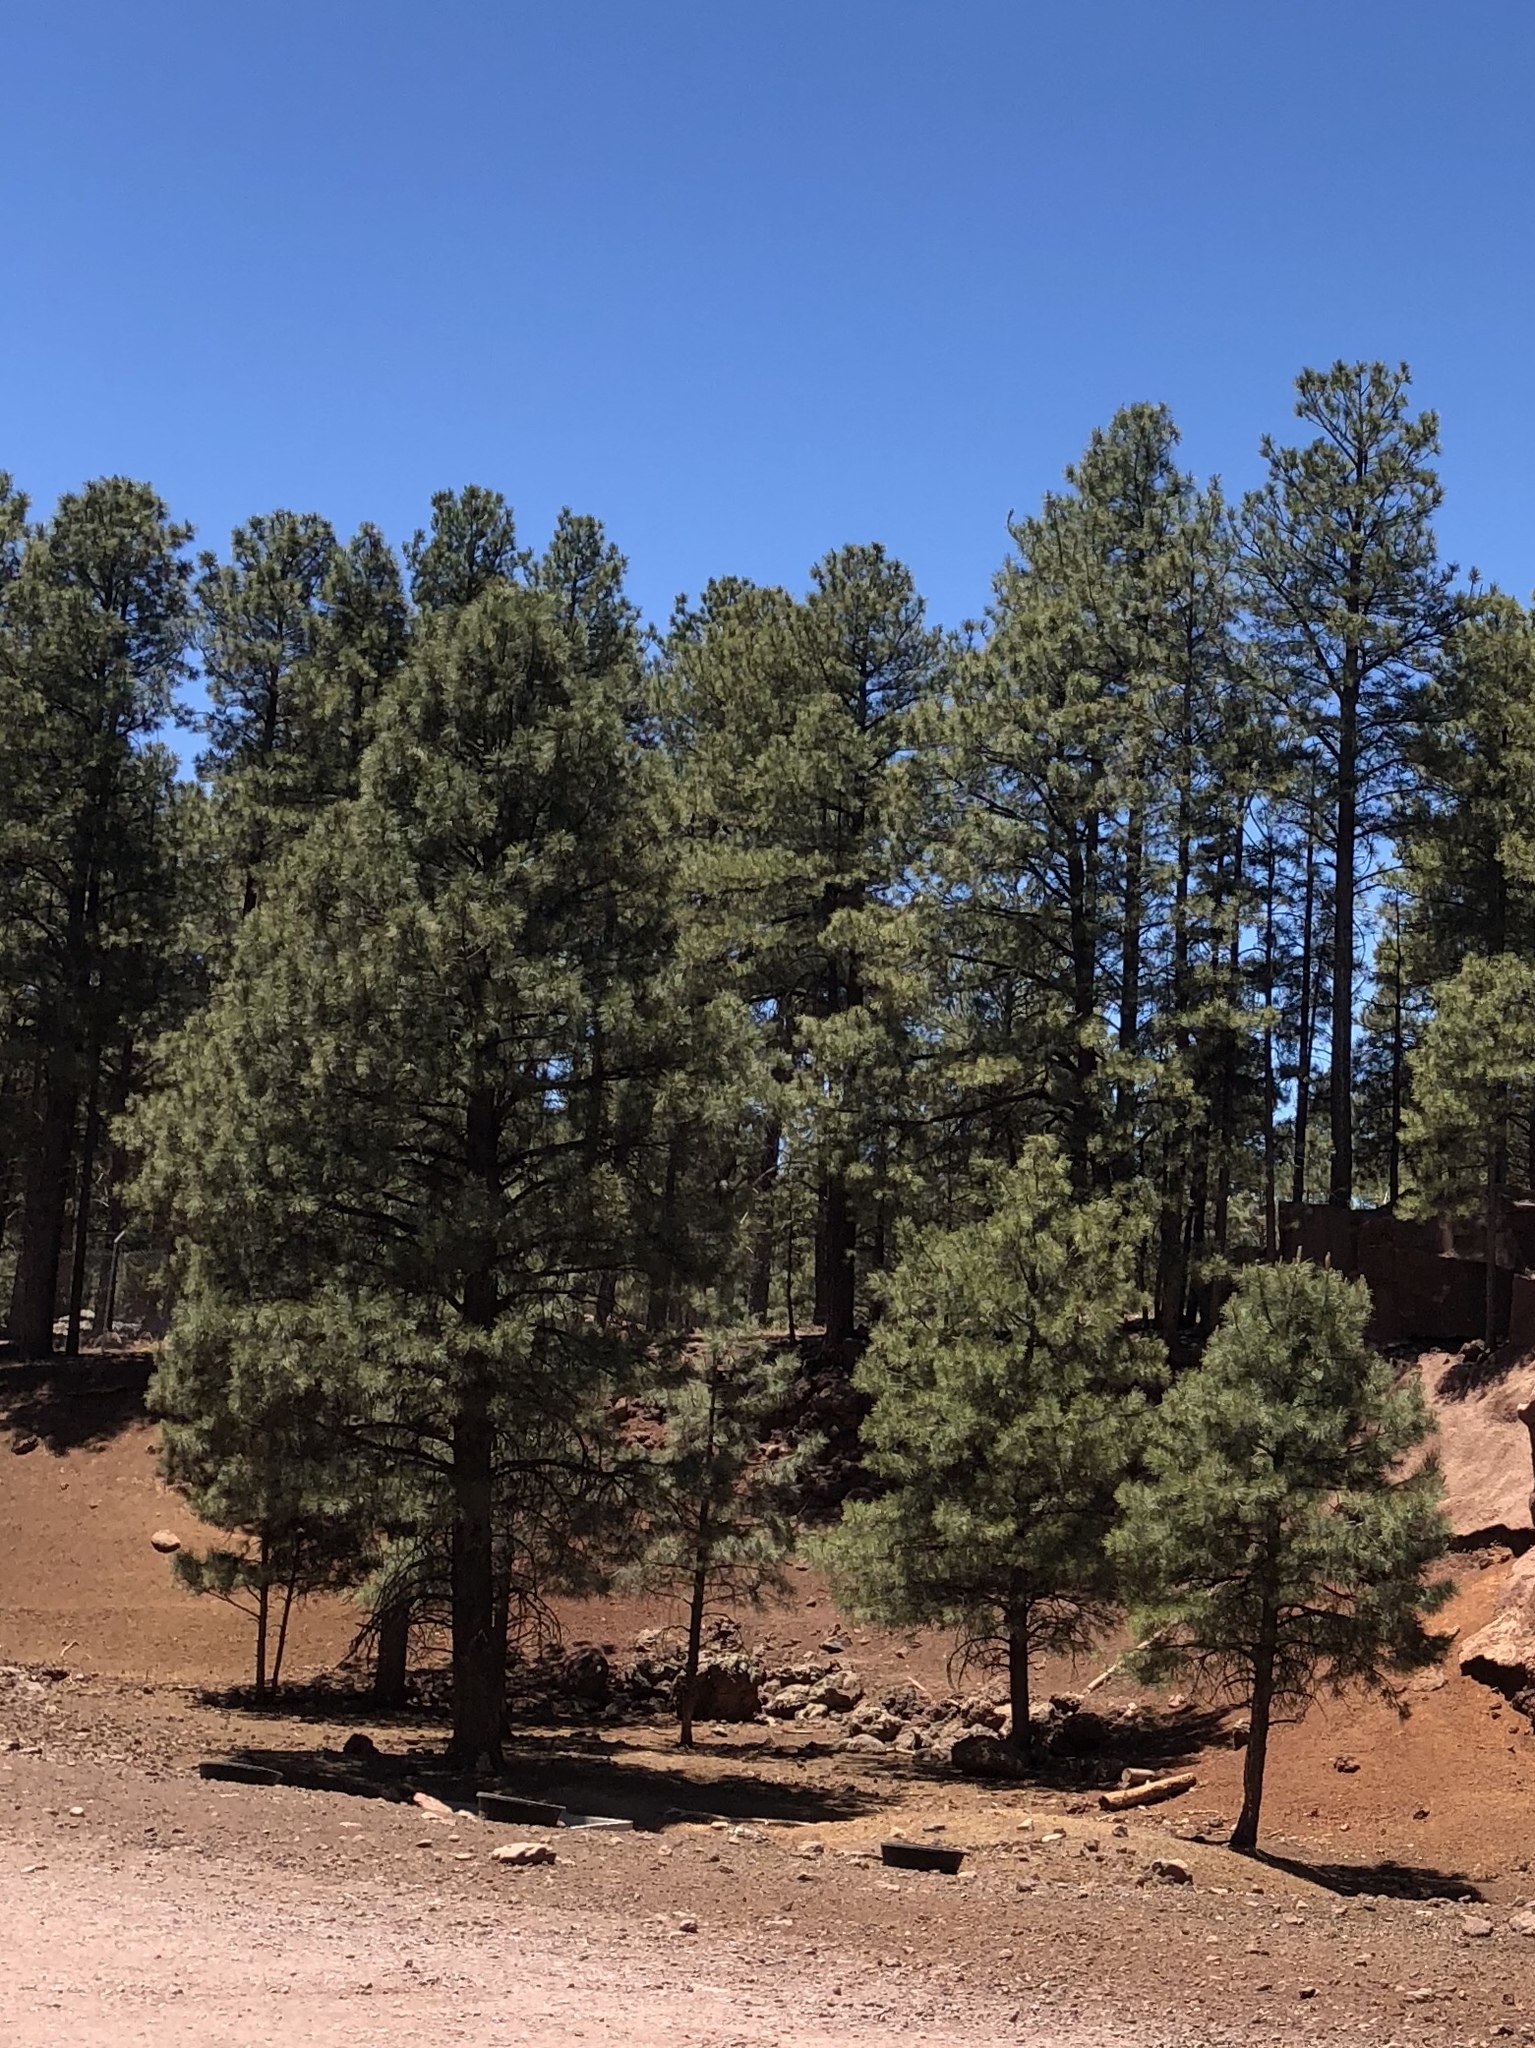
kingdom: Plantae
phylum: Tracheophyta
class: Pinopsida
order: Pinales
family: Pinaceae
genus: Pinus
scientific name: Pinus ponderosa
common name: Western yellow-pine
